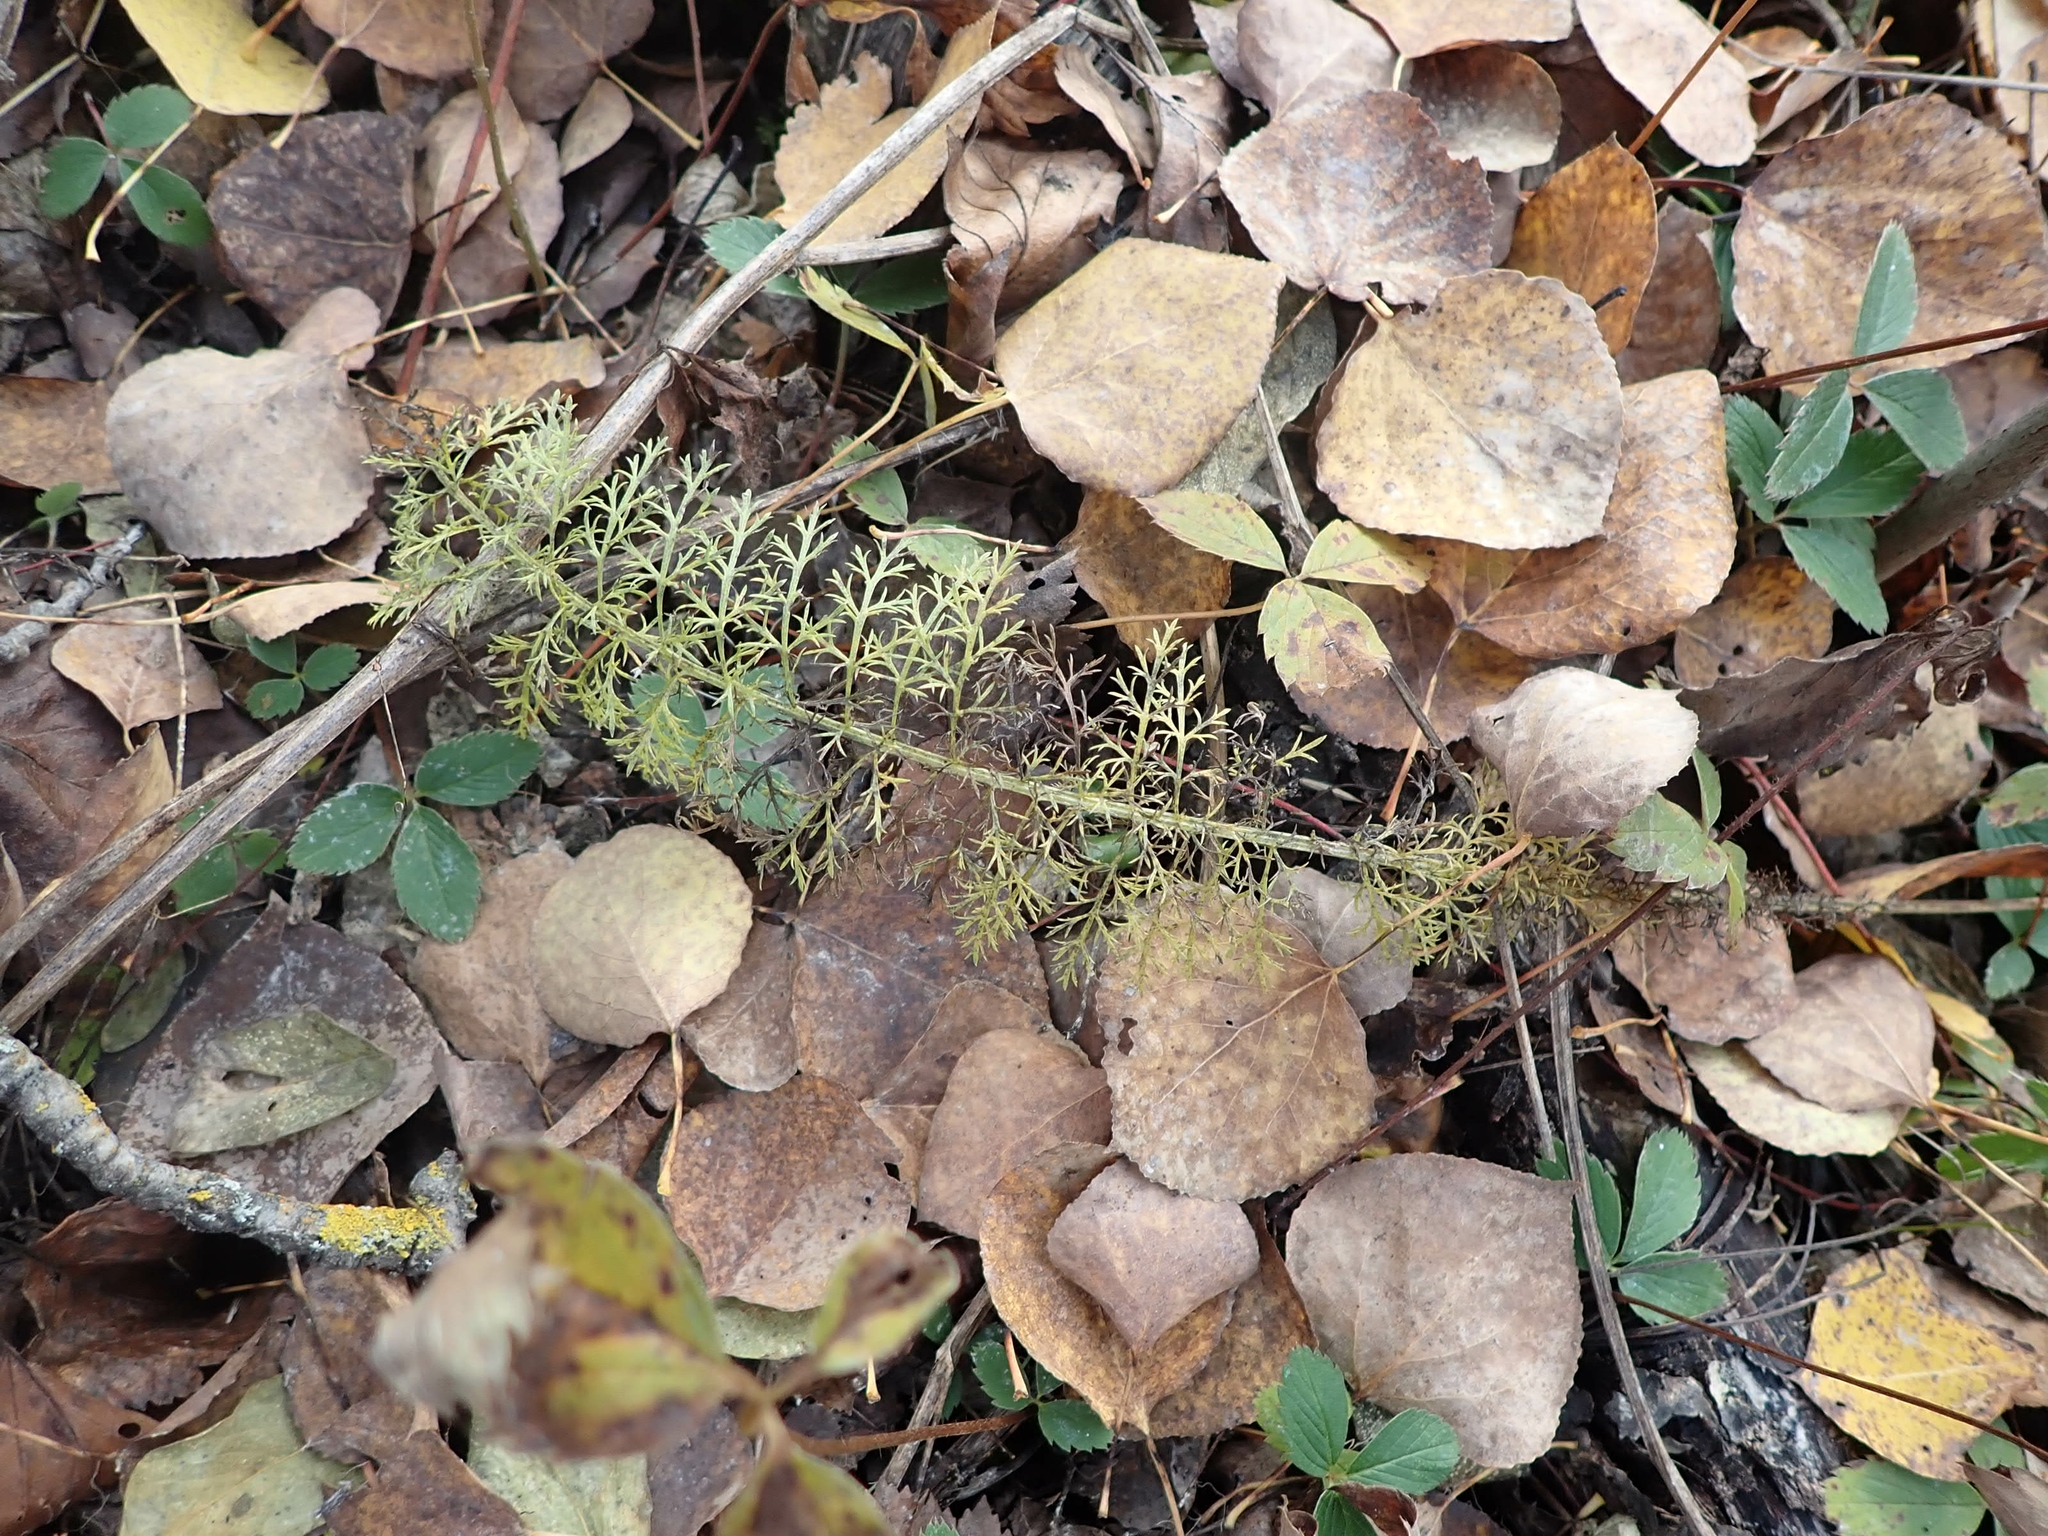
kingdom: Plantae
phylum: Tracheophyta
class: Magnoliopsida
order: Asterales
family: Asteraceae
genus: Achillea
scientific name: Achillea millefolium
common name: Yarrow
